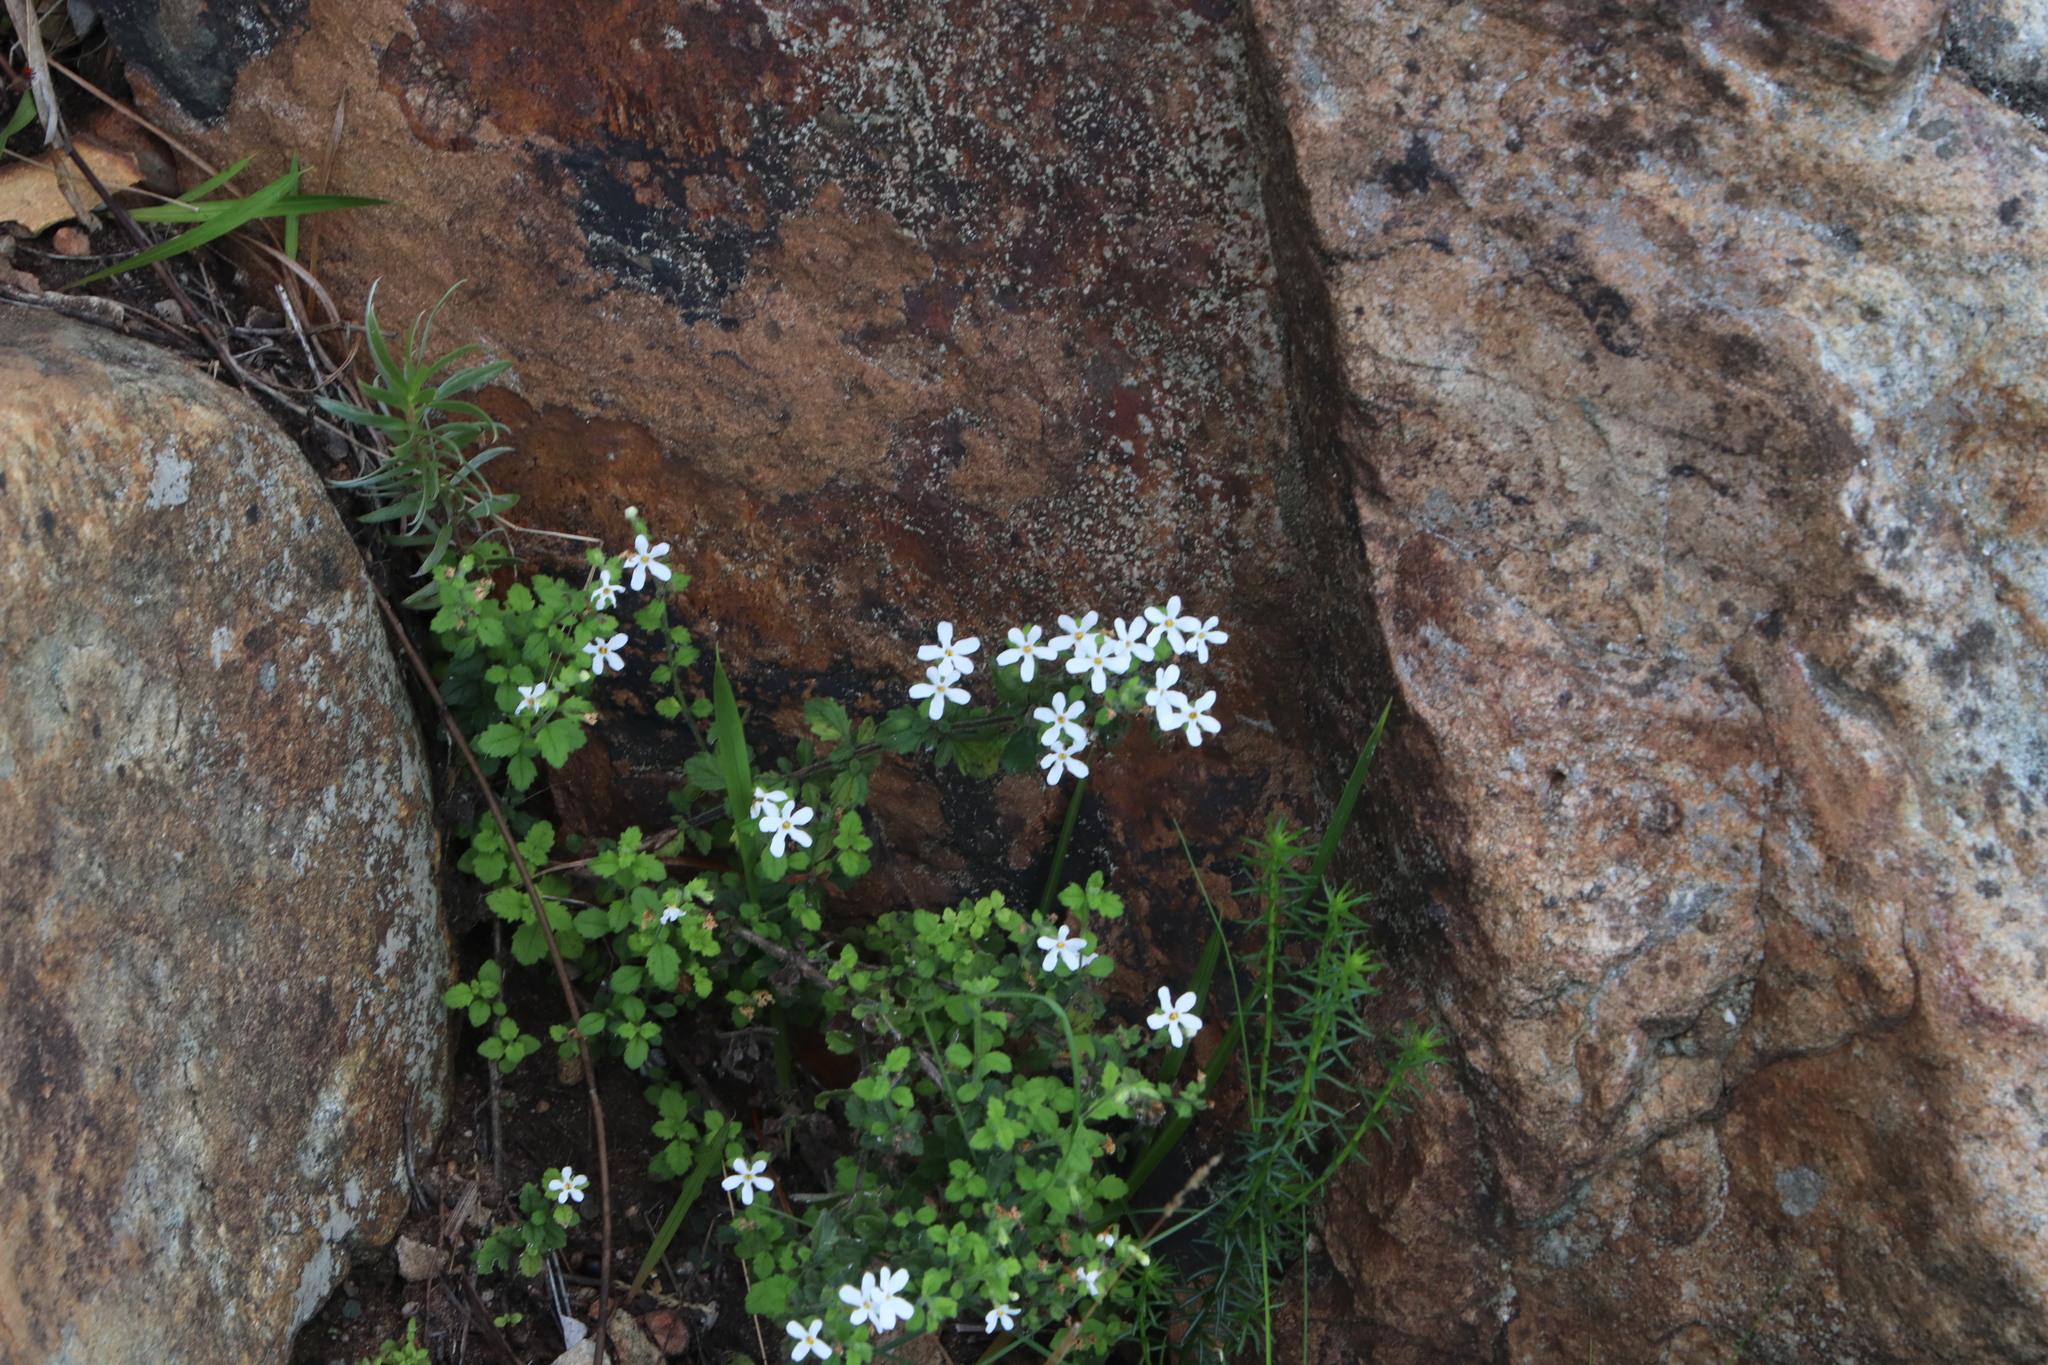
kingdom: Plantae
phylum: Tracheophyta
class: Magnoliopsida
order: Lamiales
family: Scrophulariaceae
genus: Chaenostoma
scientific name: Chaenostoma hispidum
